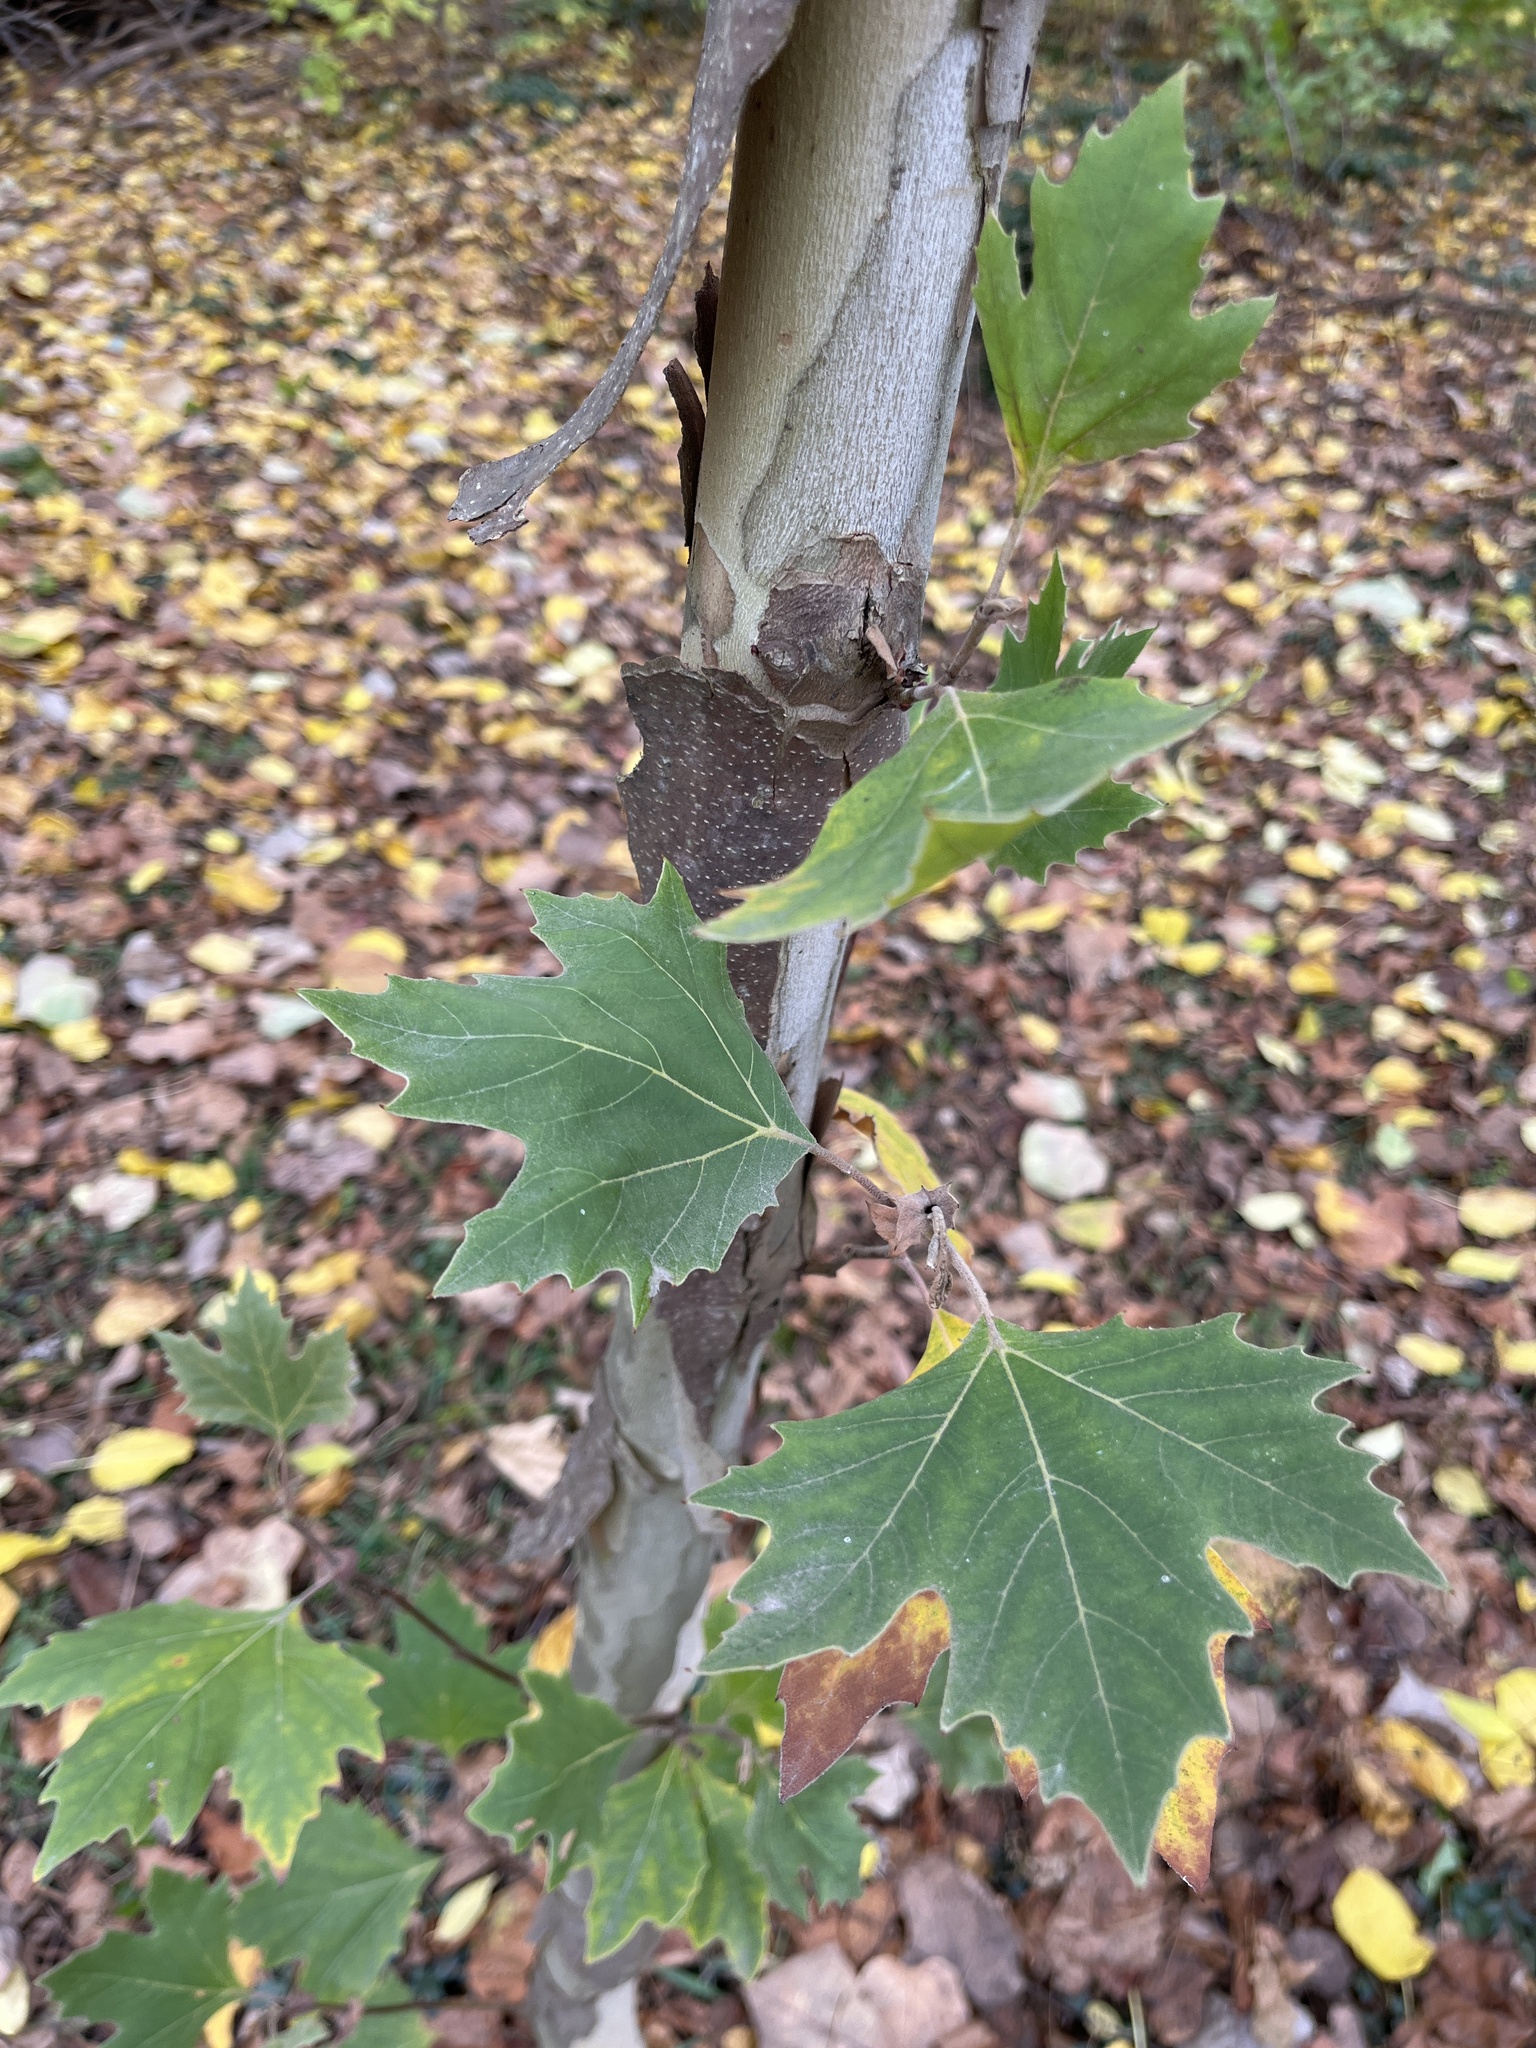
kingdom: Plantae
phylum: Tracheophyta
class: Magnoliopsida
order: Proteales
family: Platanaceae
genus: Platanus
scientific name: Platanus occidentalis
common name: American sycamore
